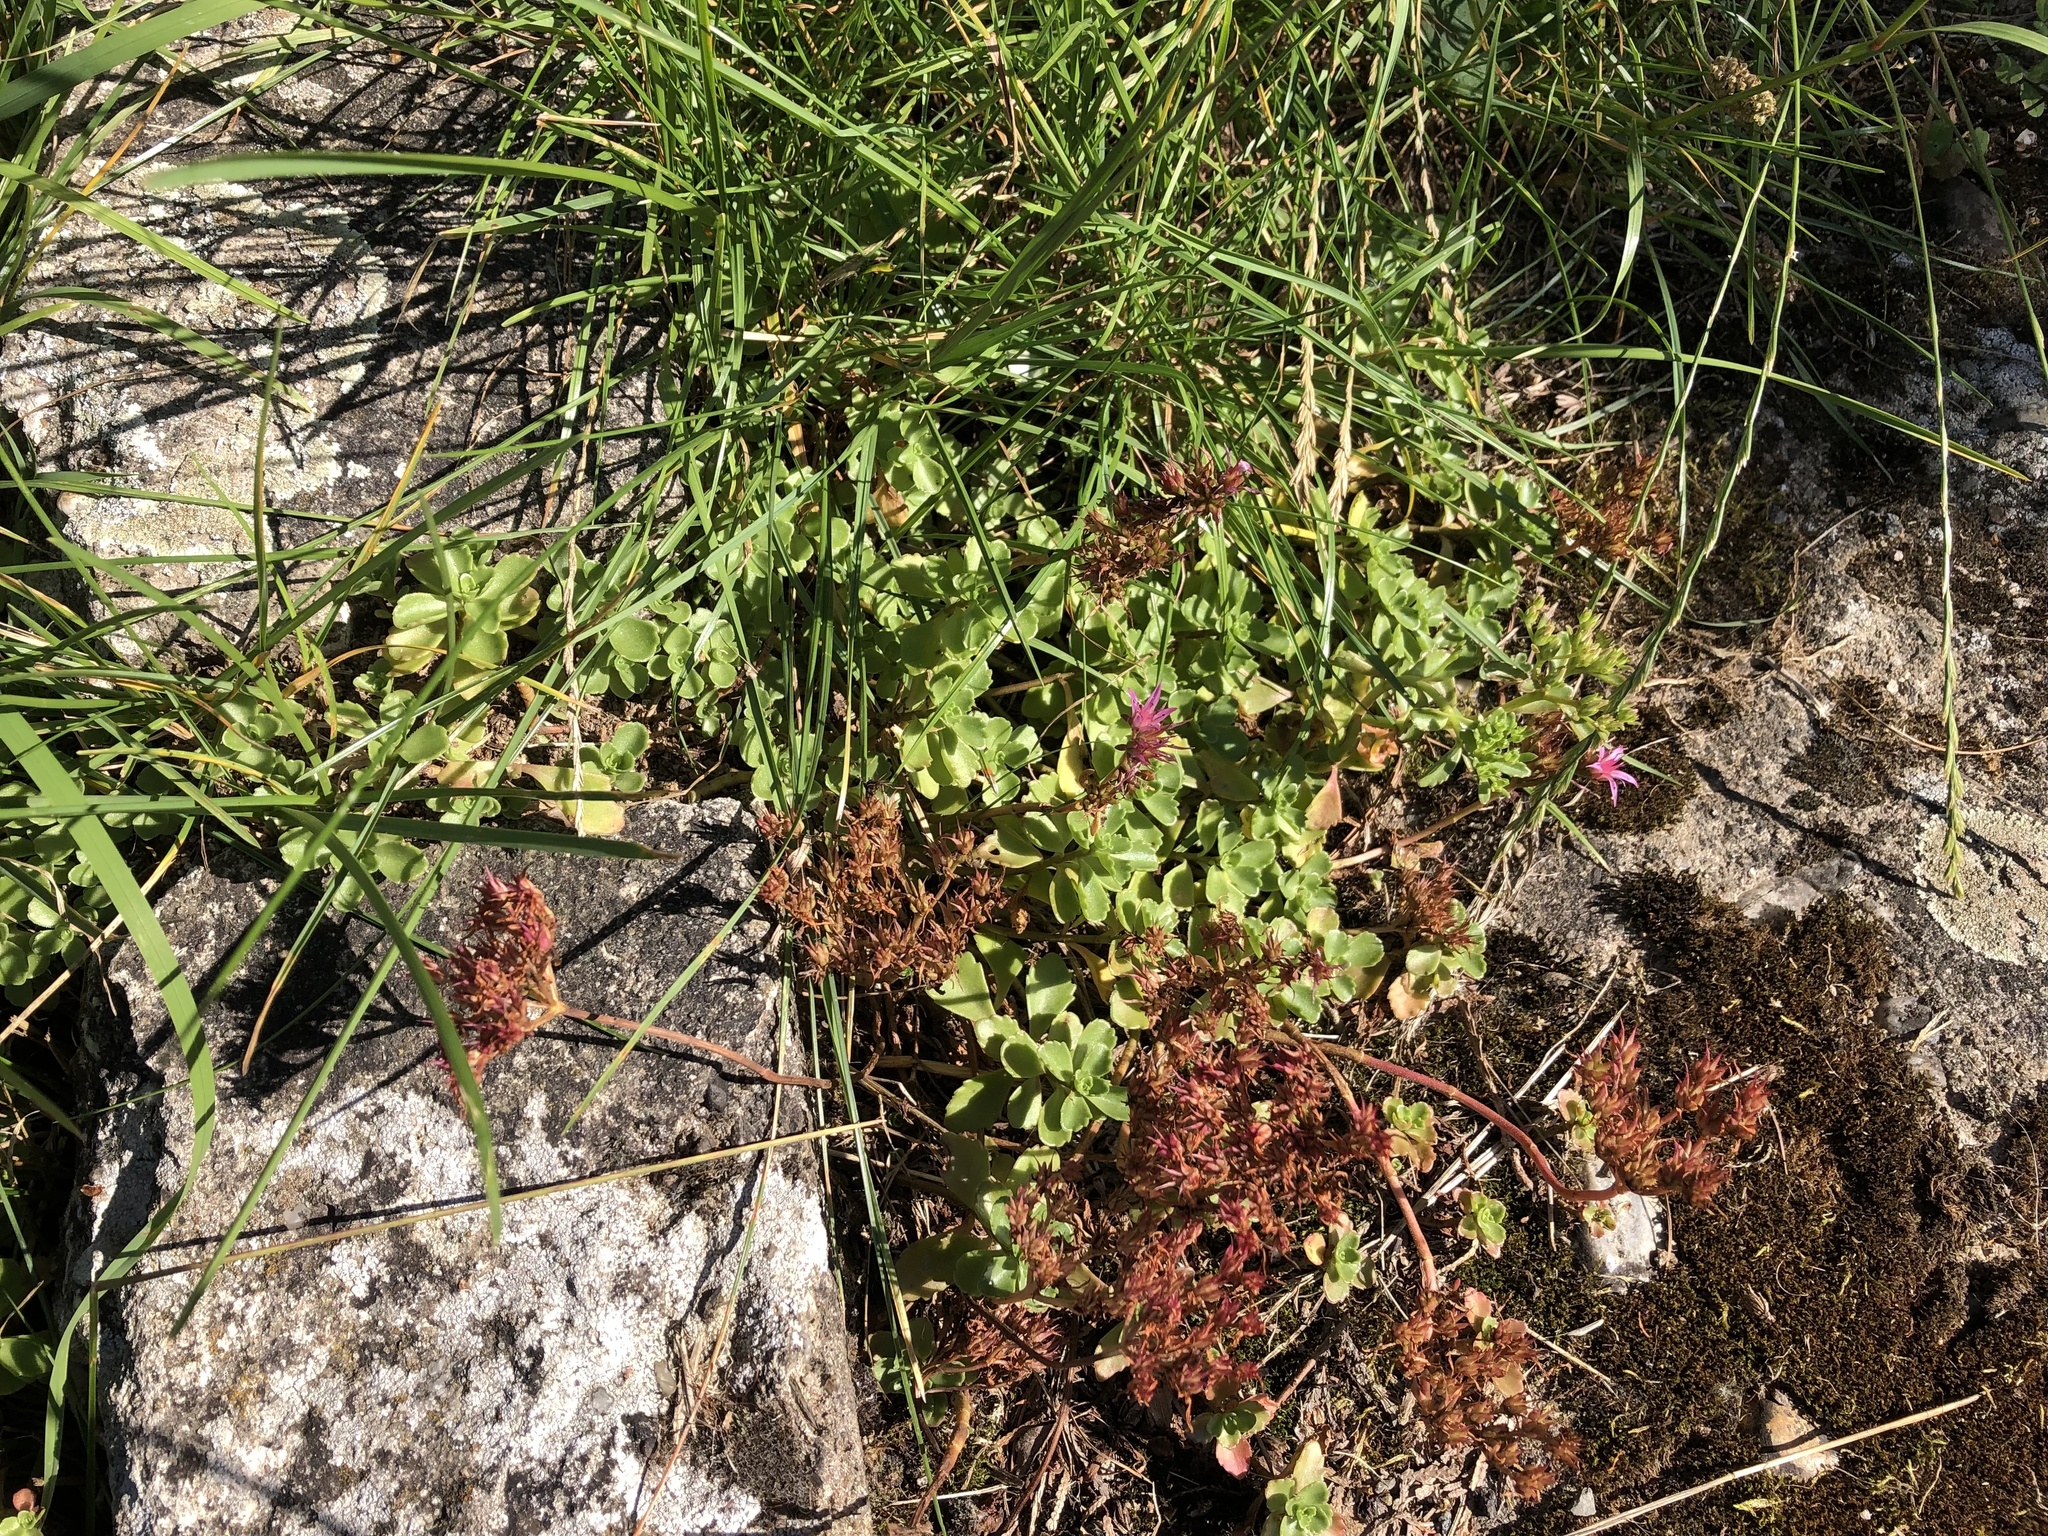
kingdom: Plantae
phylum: Tracheophyta
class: Magnoliopsida
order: Saxifragales
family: Crassulaceae
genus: Phedimus
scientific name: Phedimus spurius
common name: Caucasian stonecrop
